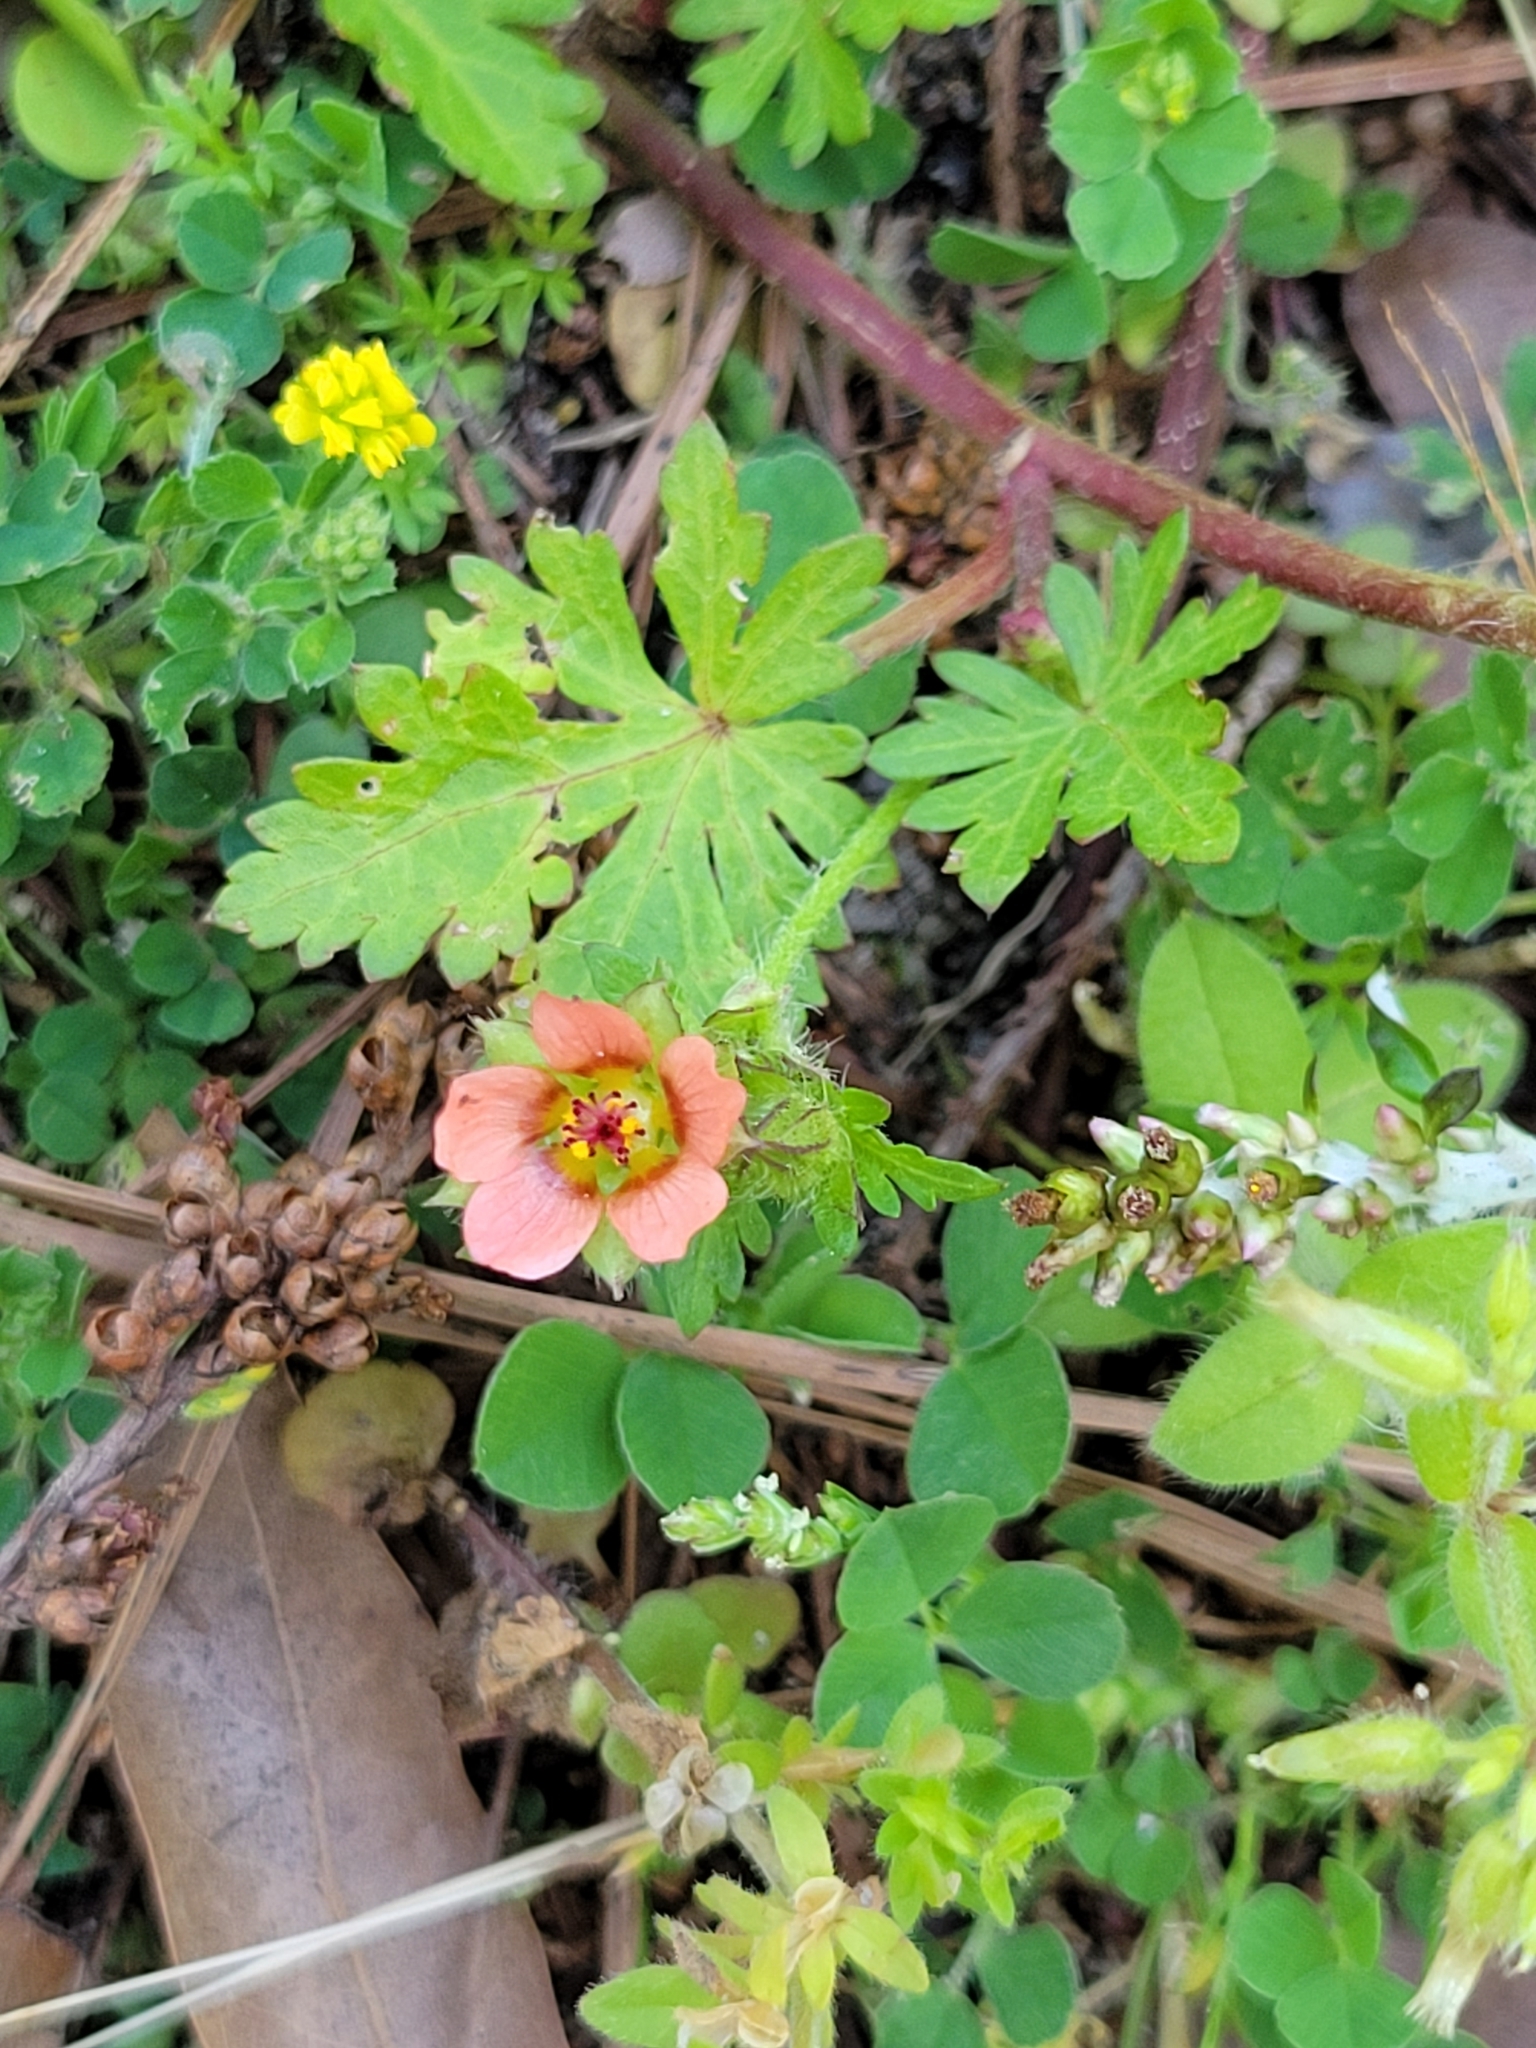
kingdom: Plantae
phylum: Tracheophyta
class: Magnoliopsida
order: Malvales
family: Malvaceae
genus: Modiola
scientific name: Modiola caroliniana
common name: Carolina bristlemallow
